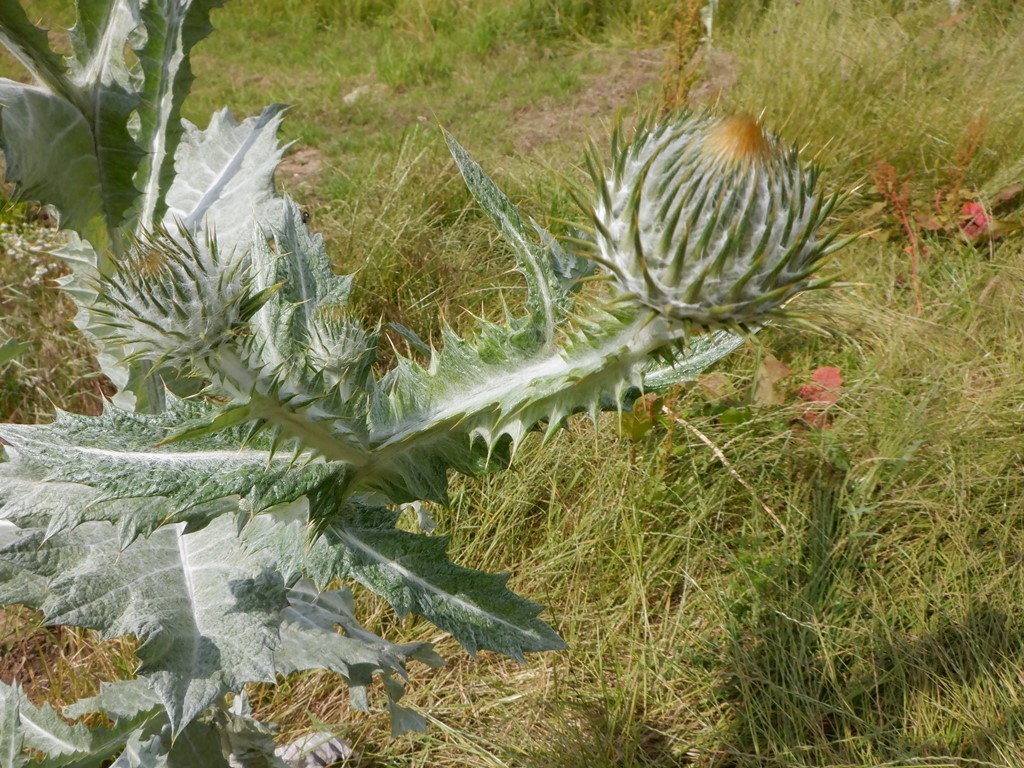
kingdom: Plantae
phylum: Tracheophyta
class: Magnoliopsida
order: Asterales
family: Asteraceae
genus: Onopordum
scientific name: Onopordum acanthium
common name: Scotch thistle
